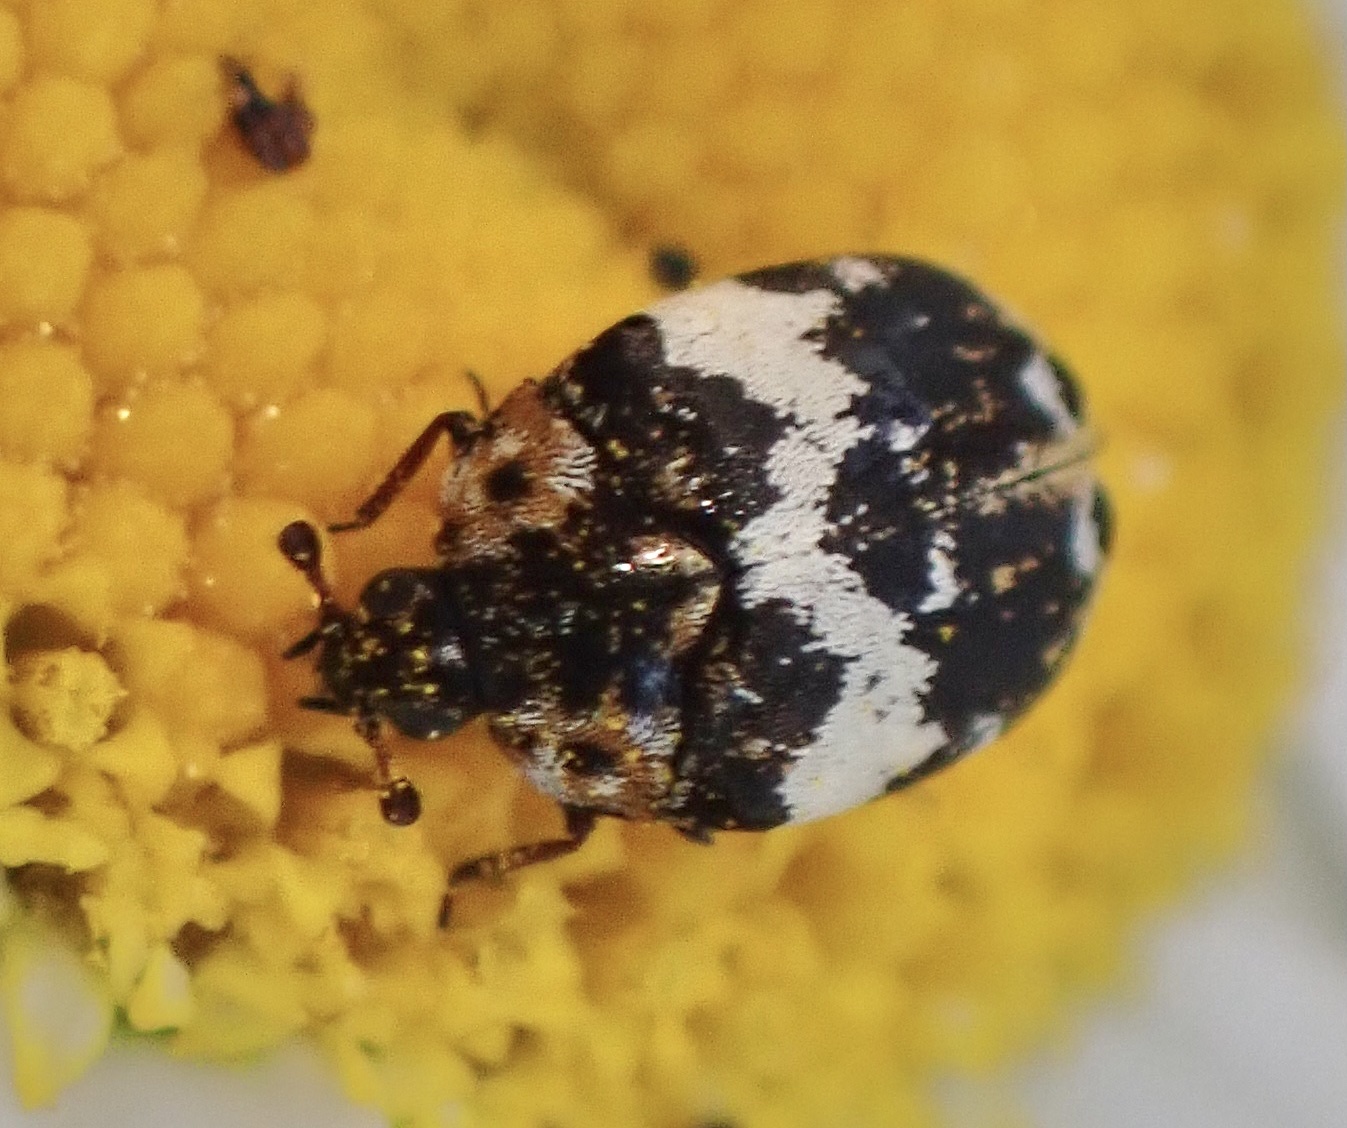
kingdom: Animalia
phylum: Arthropoda
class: Insecta
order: Coleoptera
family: Dermestidae
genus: Anthrenus
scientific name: Anthrenus pimpinellae
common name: Dermestid beetle
